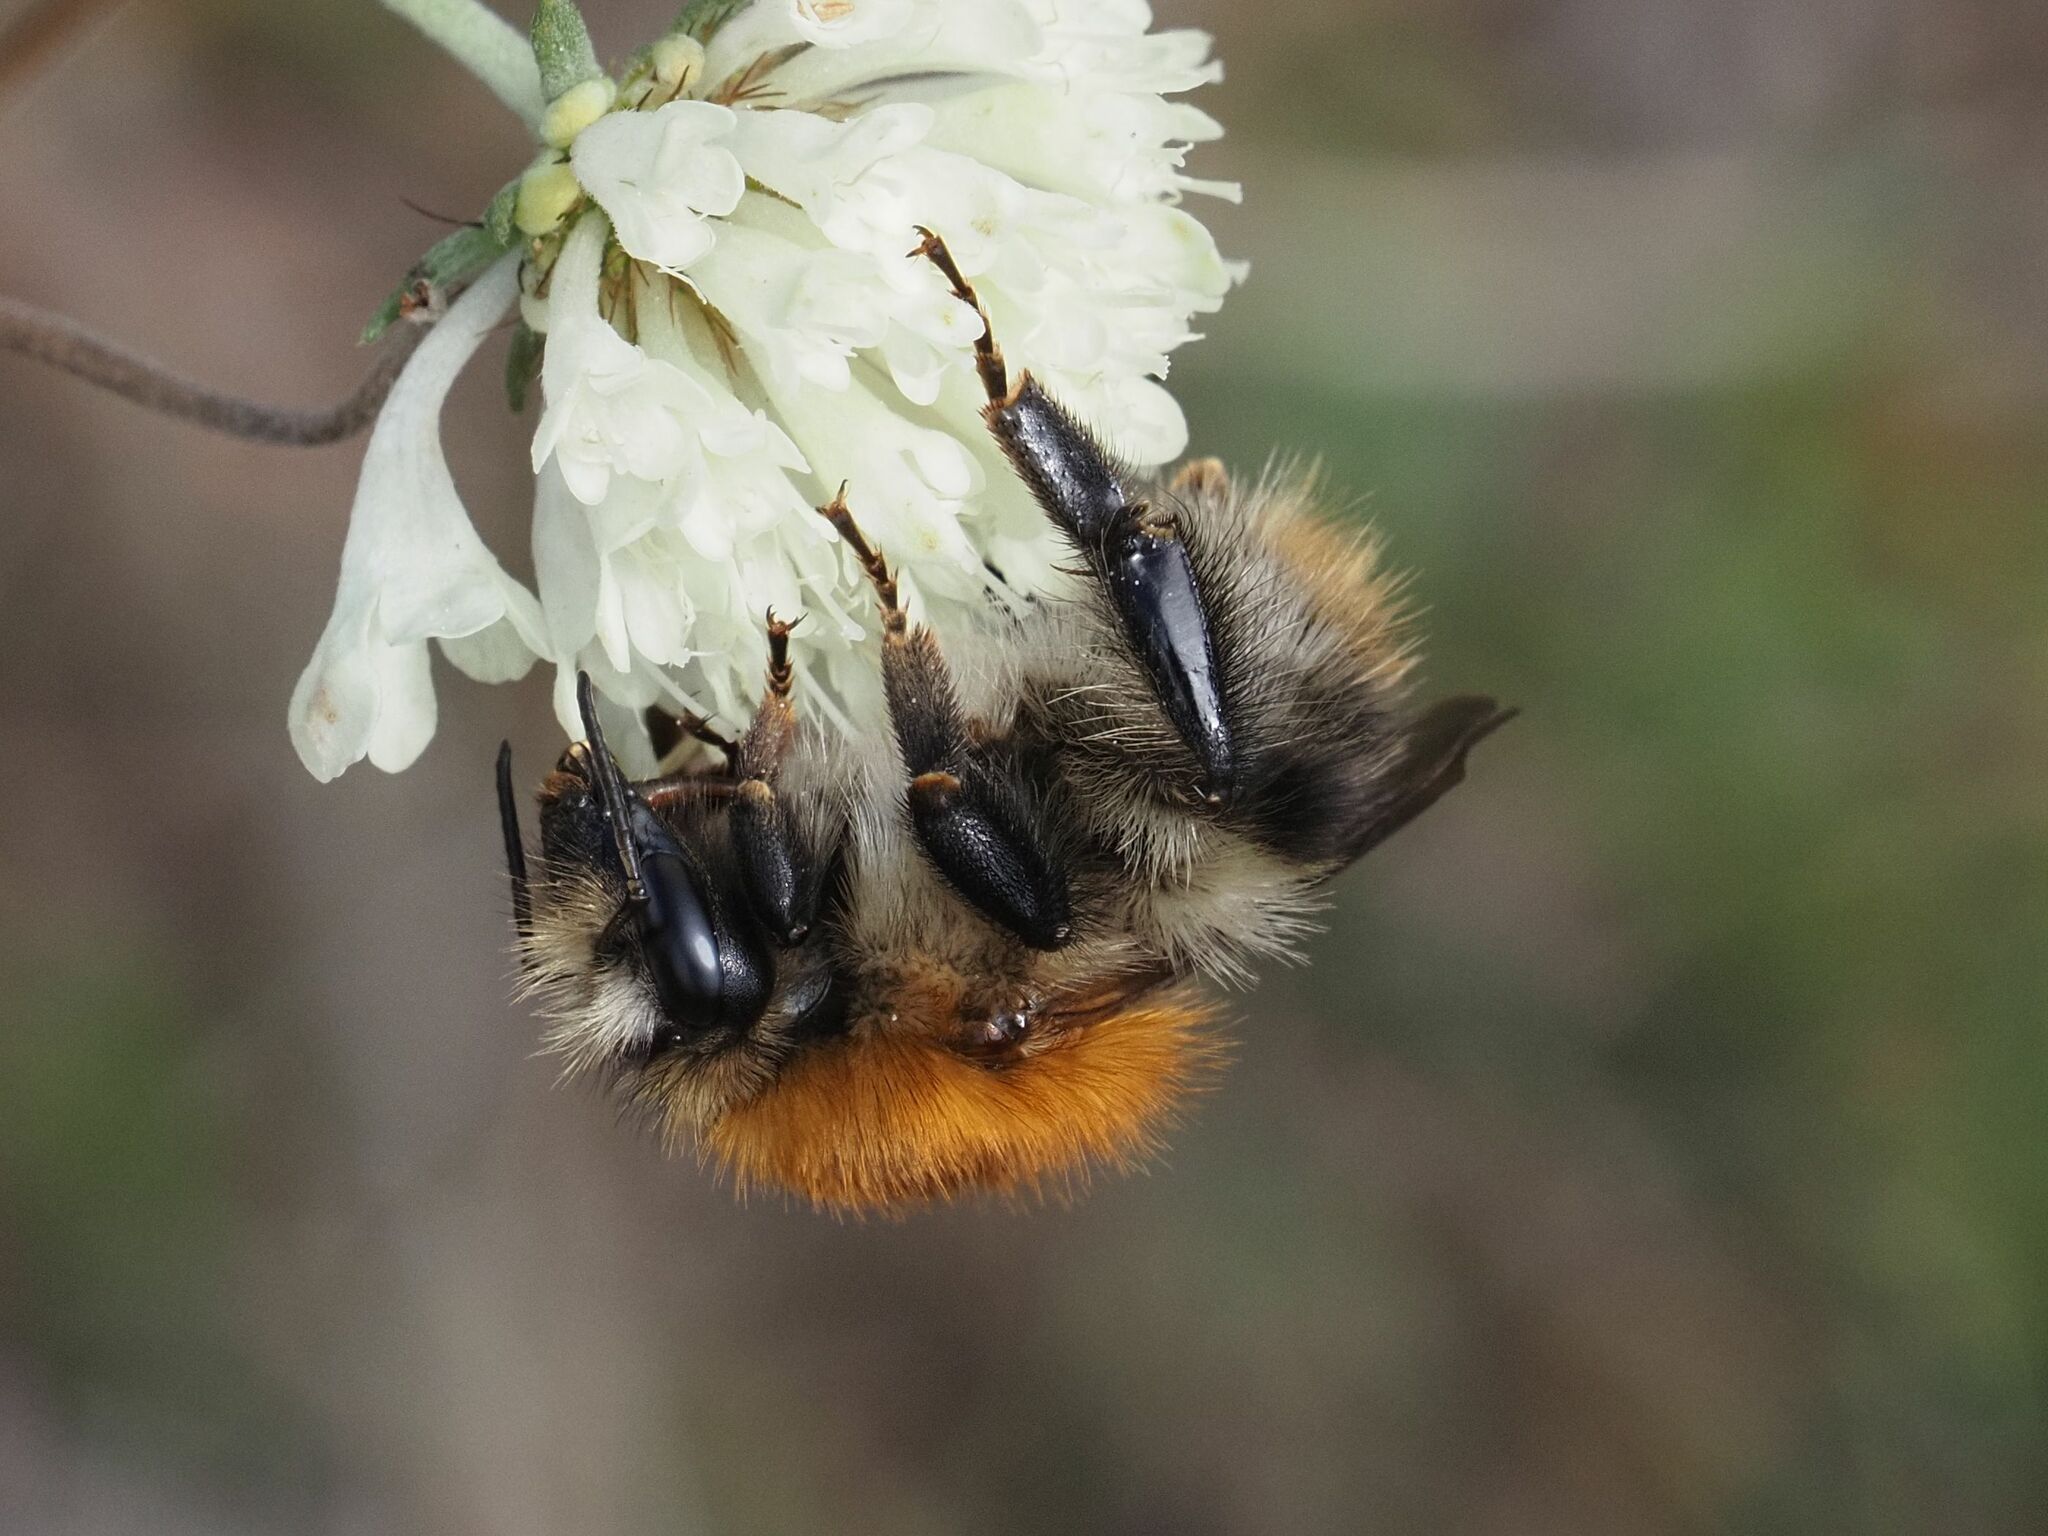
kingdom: Animalia
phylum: Arthropoda
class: Insecta
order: Hymenoptera
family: Apidae
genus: Bombus
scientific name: Bombus pascuorum
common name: Common carder bee
